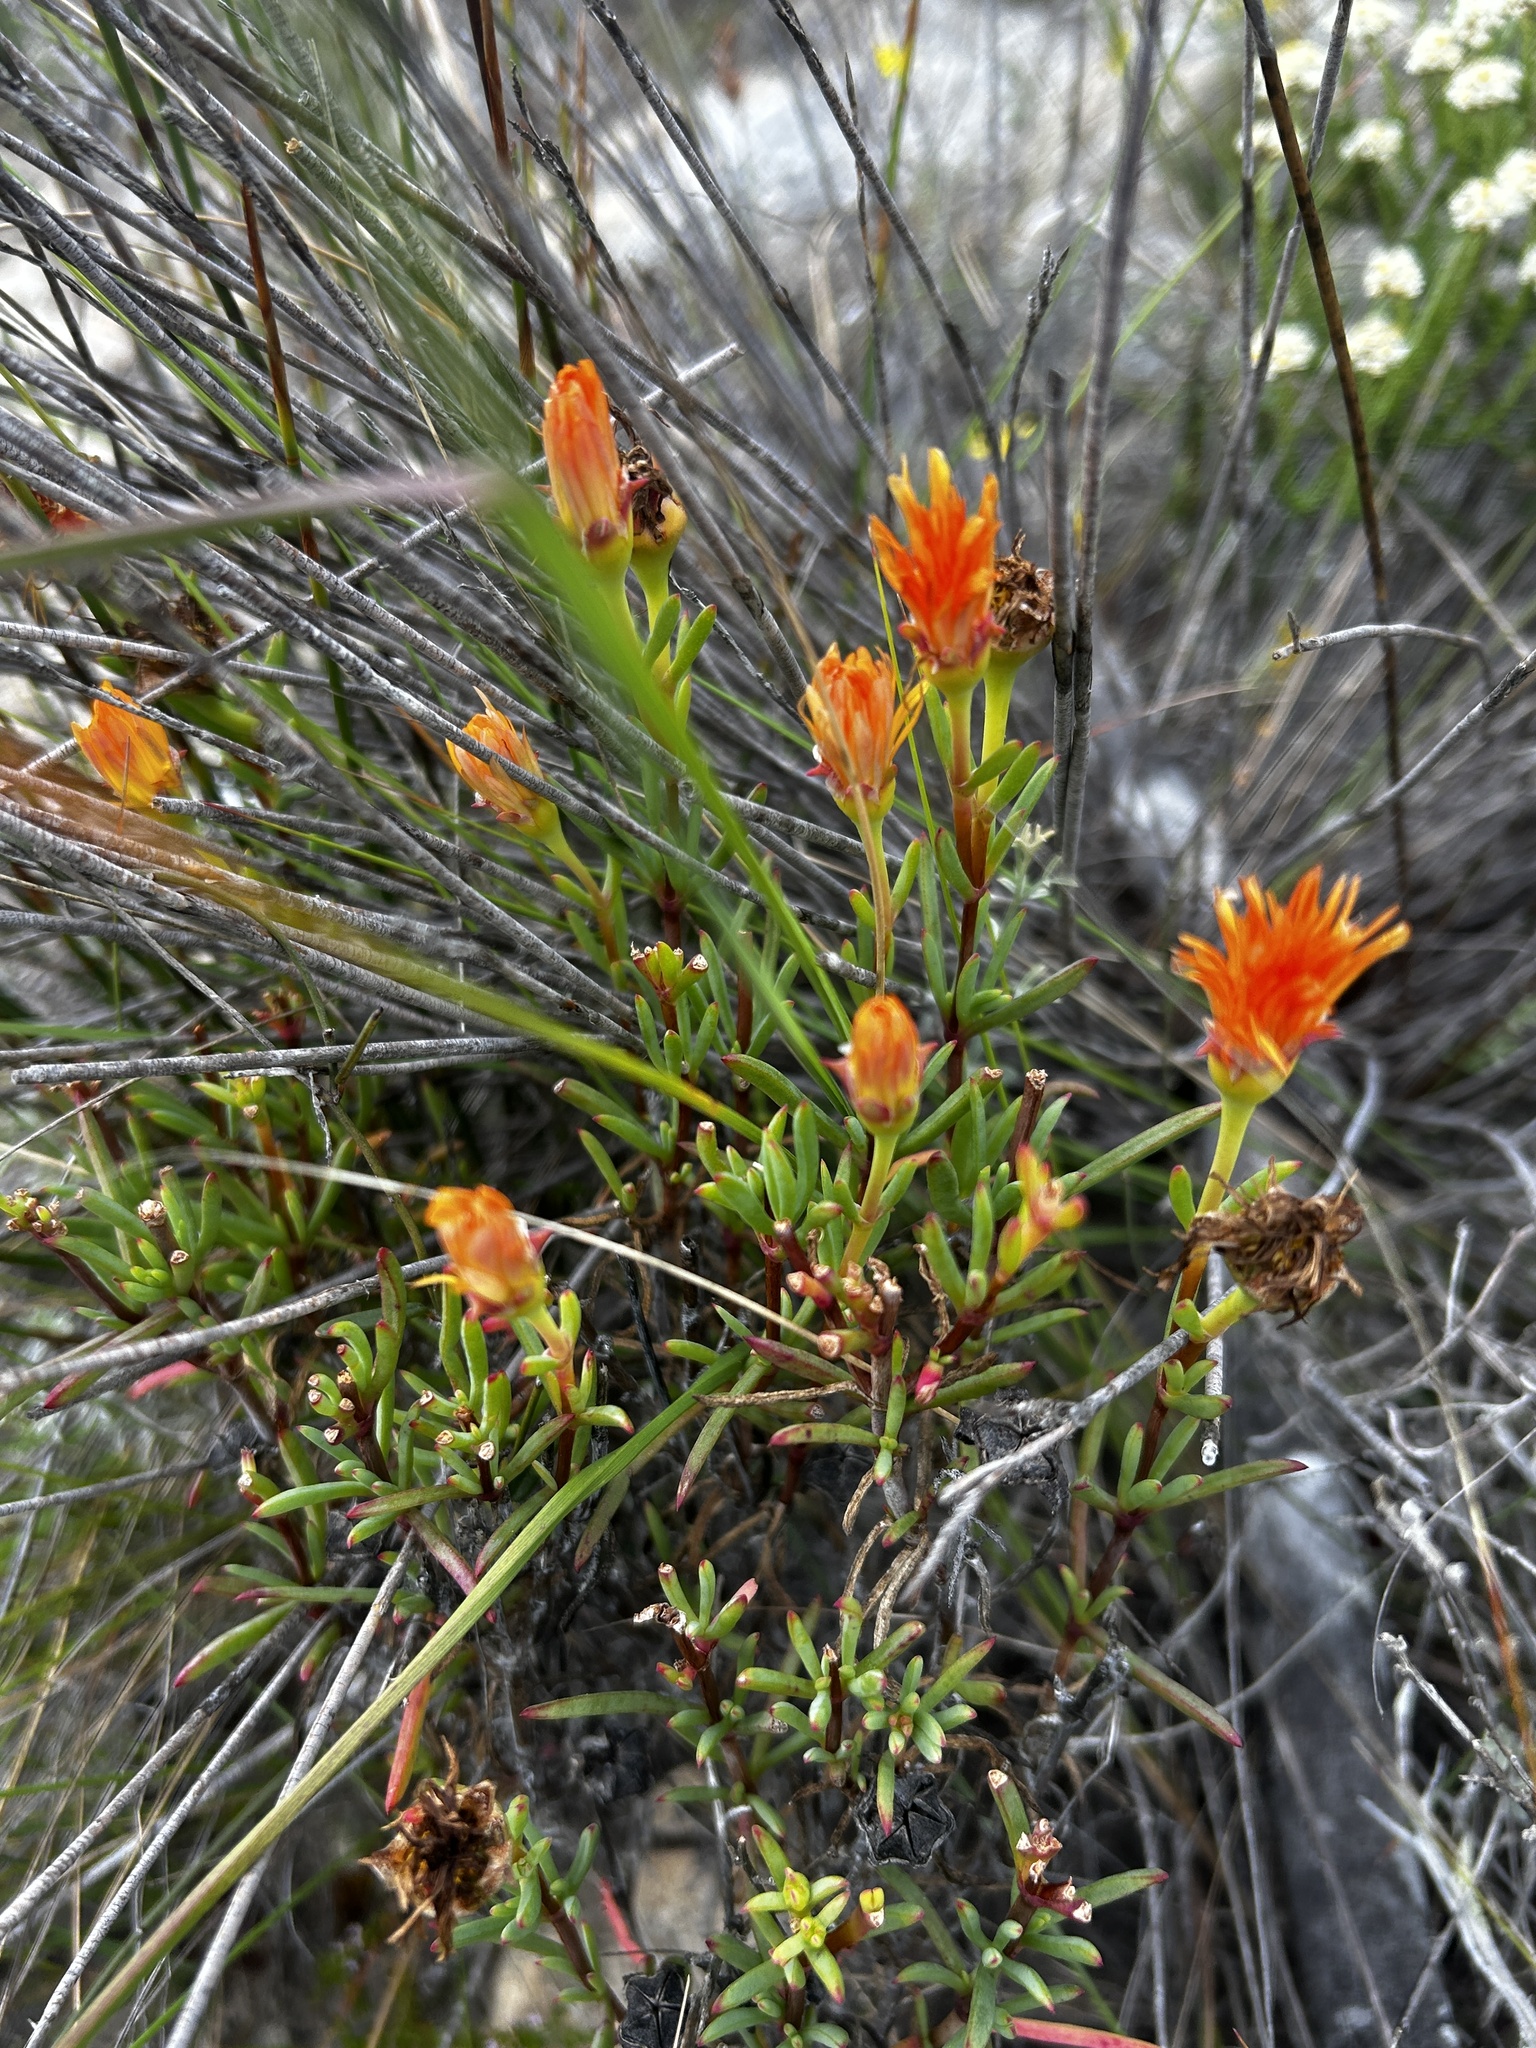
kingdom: Plantae
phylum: Tracheophyta
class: Magnoliopsida
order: Caryophyllales
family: Aizoaceae
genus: Lampranthus
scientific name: Lampranthus fergusoniae
